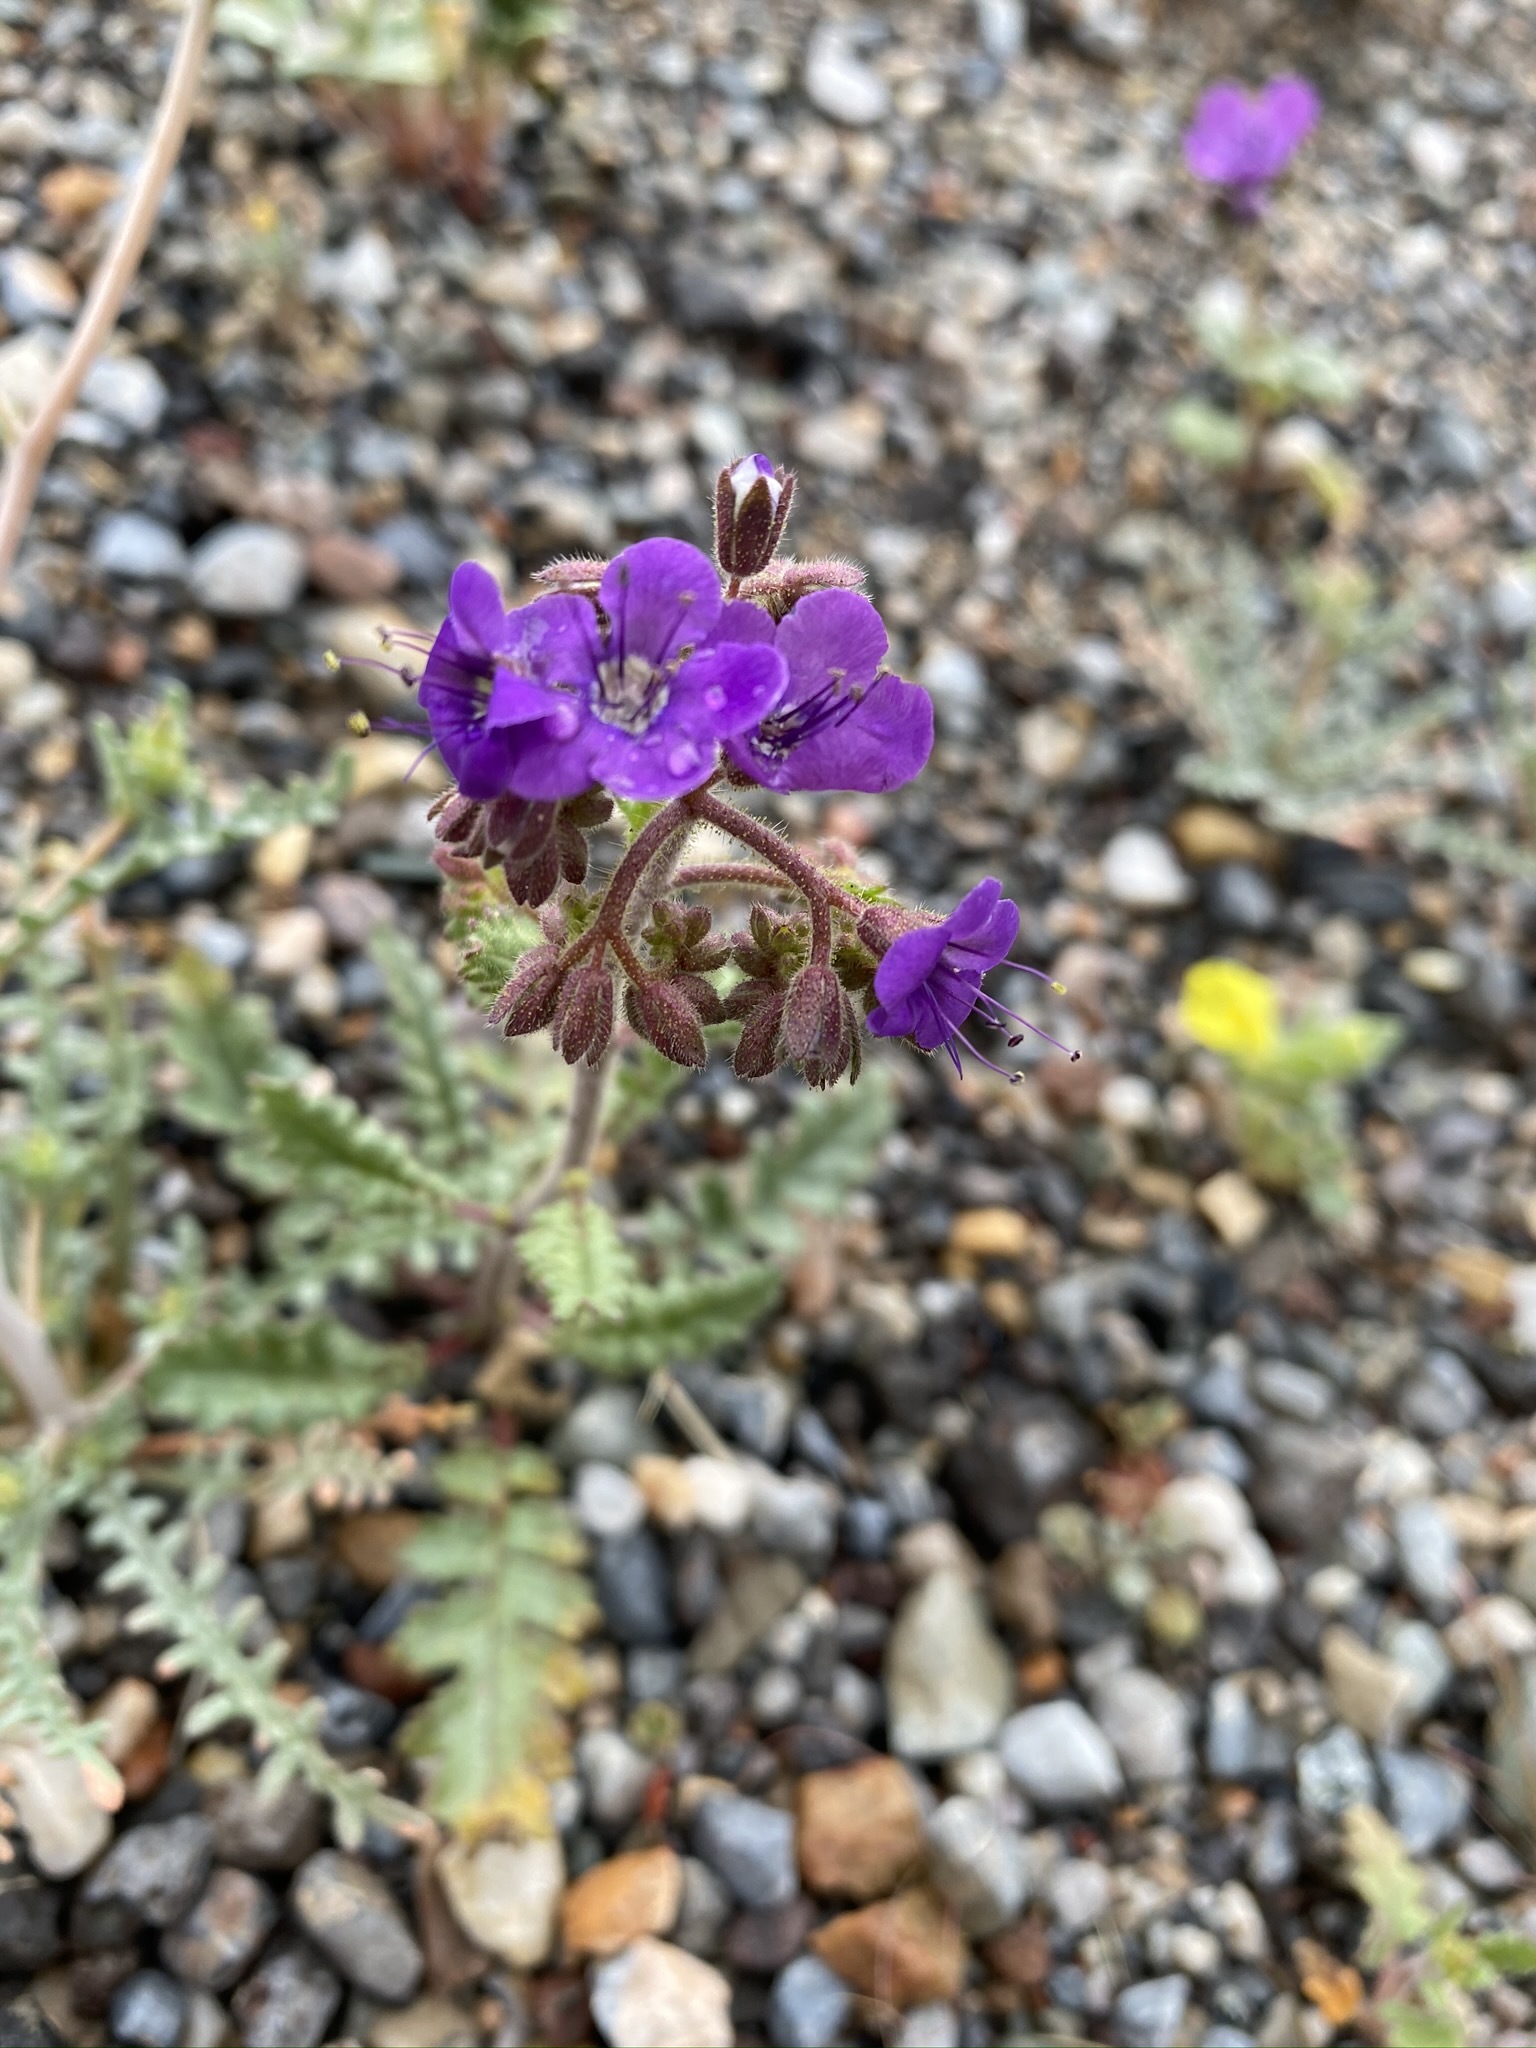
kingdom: Plantae
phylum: Tracheophyta
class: Magnoliopsida
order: Boraginales
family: Hydrophyllaceae
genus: Phacelia
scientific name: Phacelia crenulata
